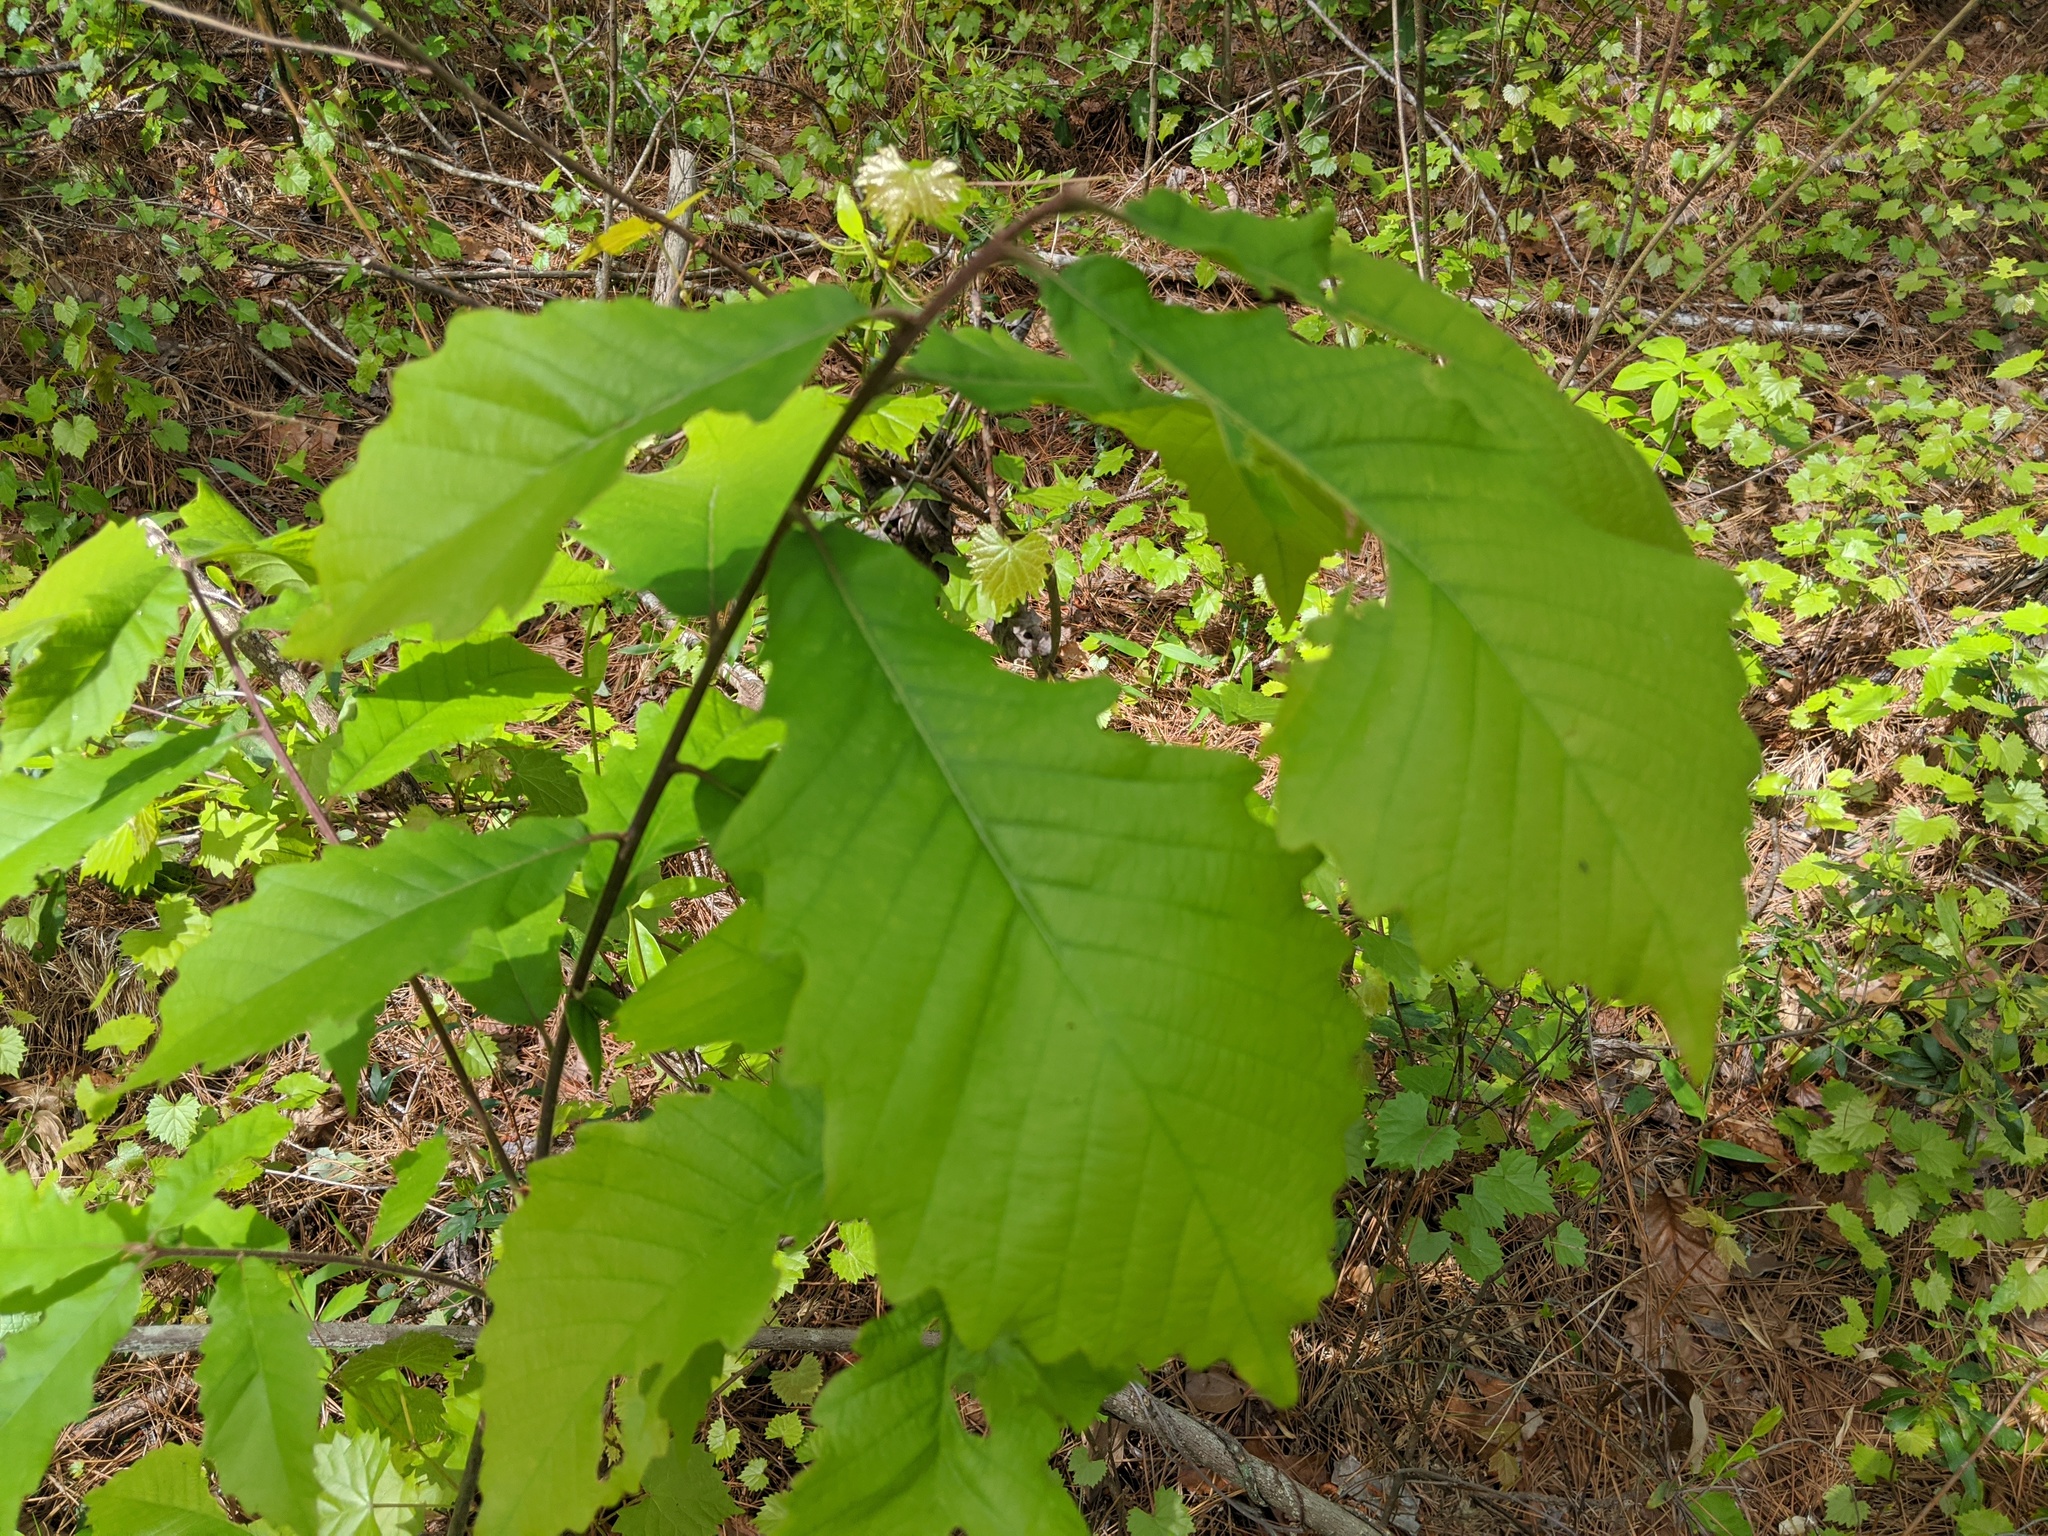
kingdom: Plantae
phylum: Tracheophyta
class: Magnoliopsida
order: Fagales
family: Fagaceae
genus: Quercus
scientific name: Quercus michauxii
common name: Swamp chestnut oak
